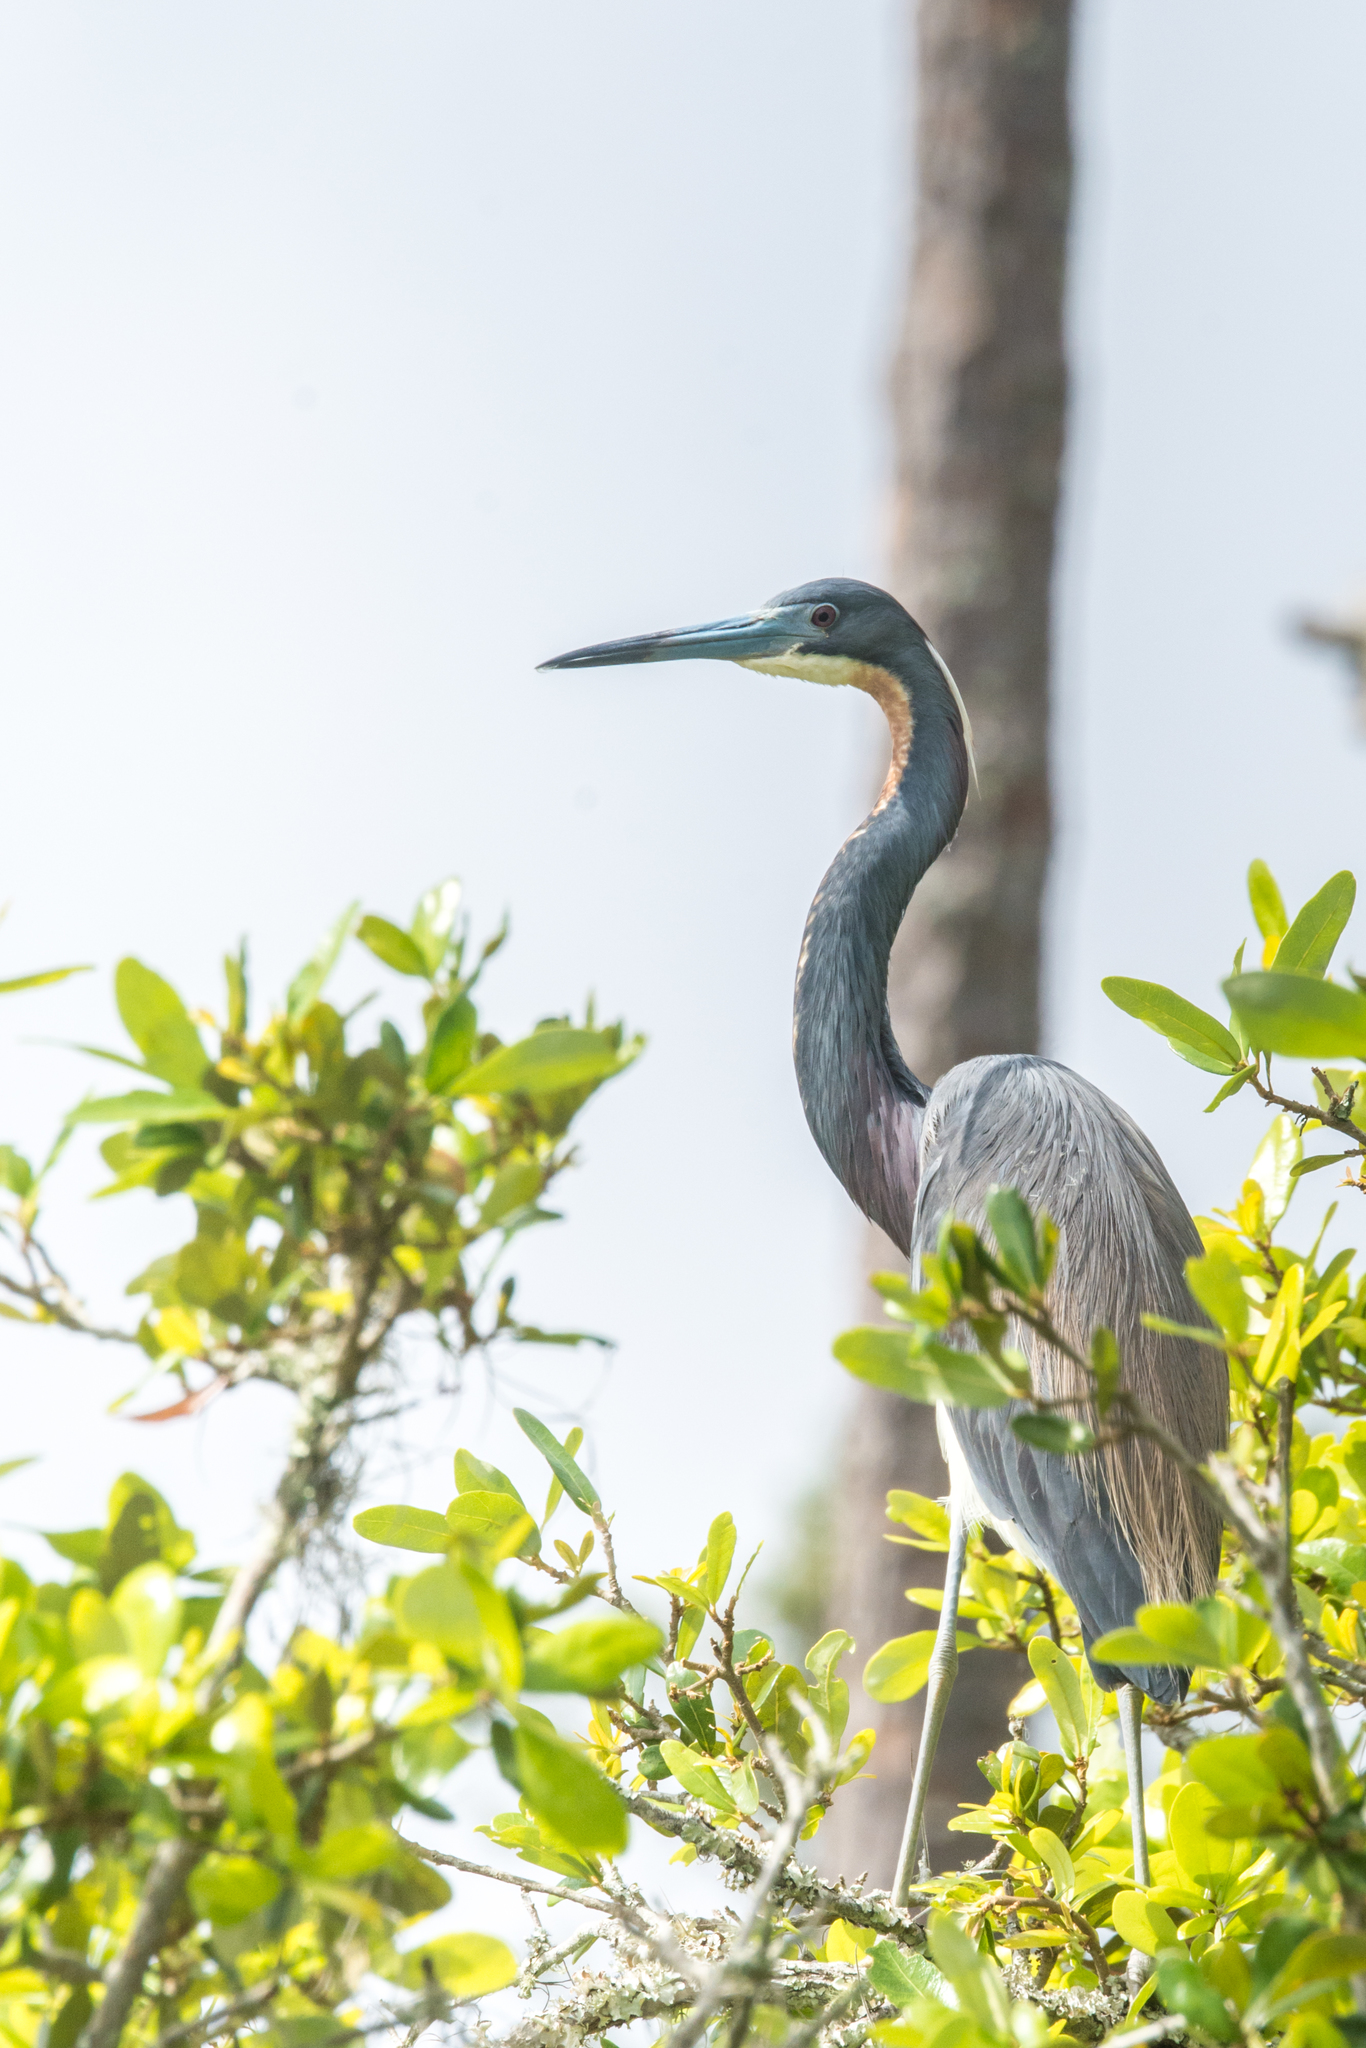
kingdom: Animalia
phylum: Chordata
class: Aves
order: Pelecaniformes
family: Ardeidae
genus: Egretta
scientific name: Egretta tricolor
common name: Tricolored heron
